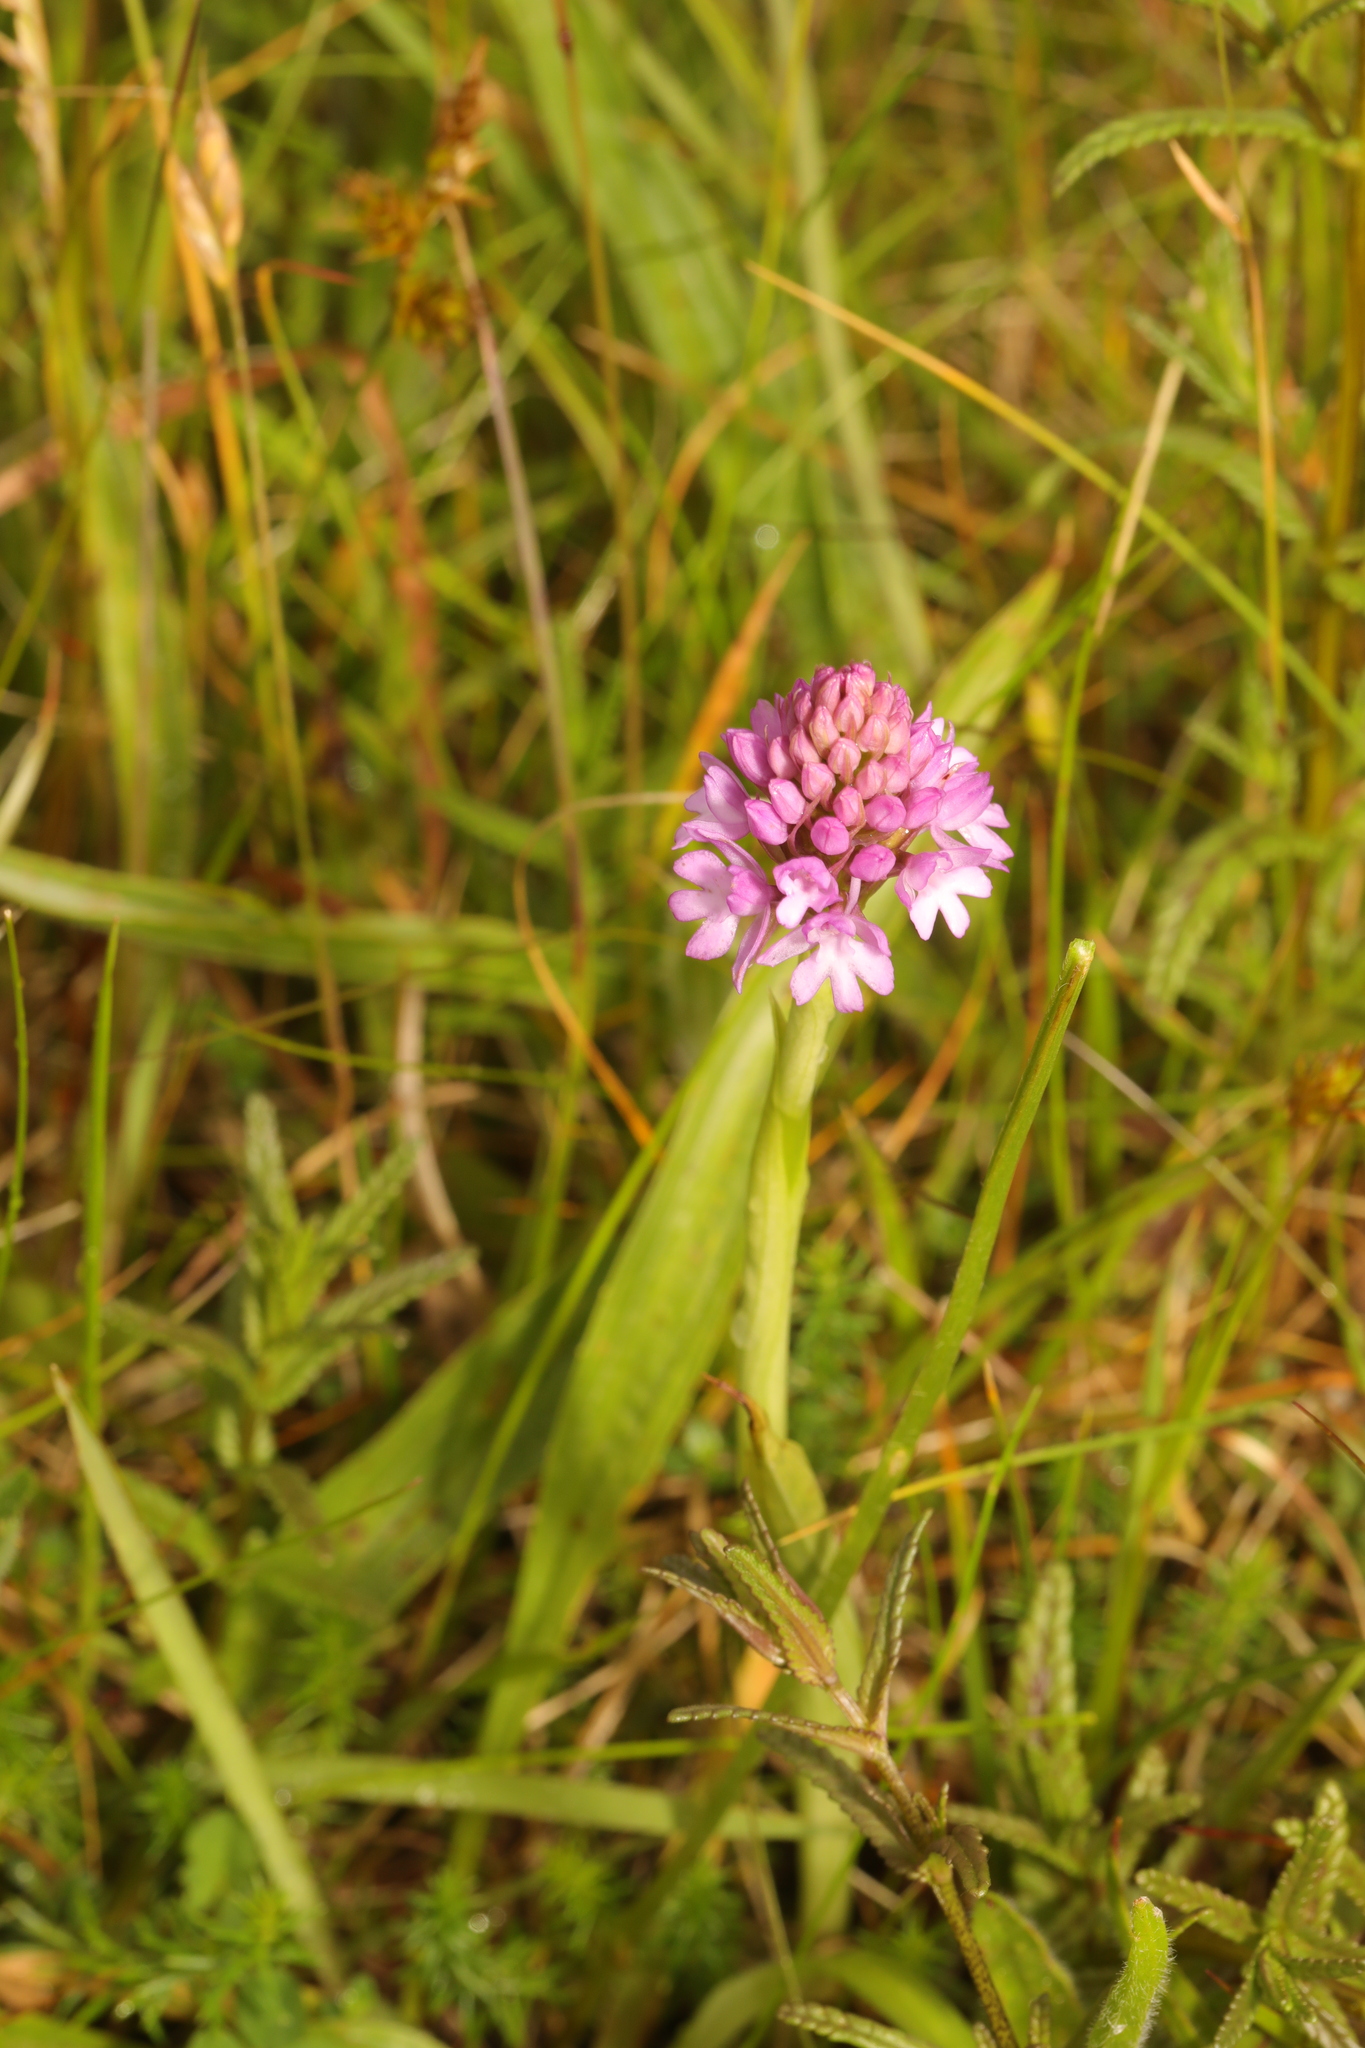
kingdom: Plantae
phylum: Tracheophyta
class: Liliopsida
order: Asparagales
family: Orchidaceae
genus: Anacamptis
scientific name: Anacamptis pyramidalis
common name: Pyramidal orchid
